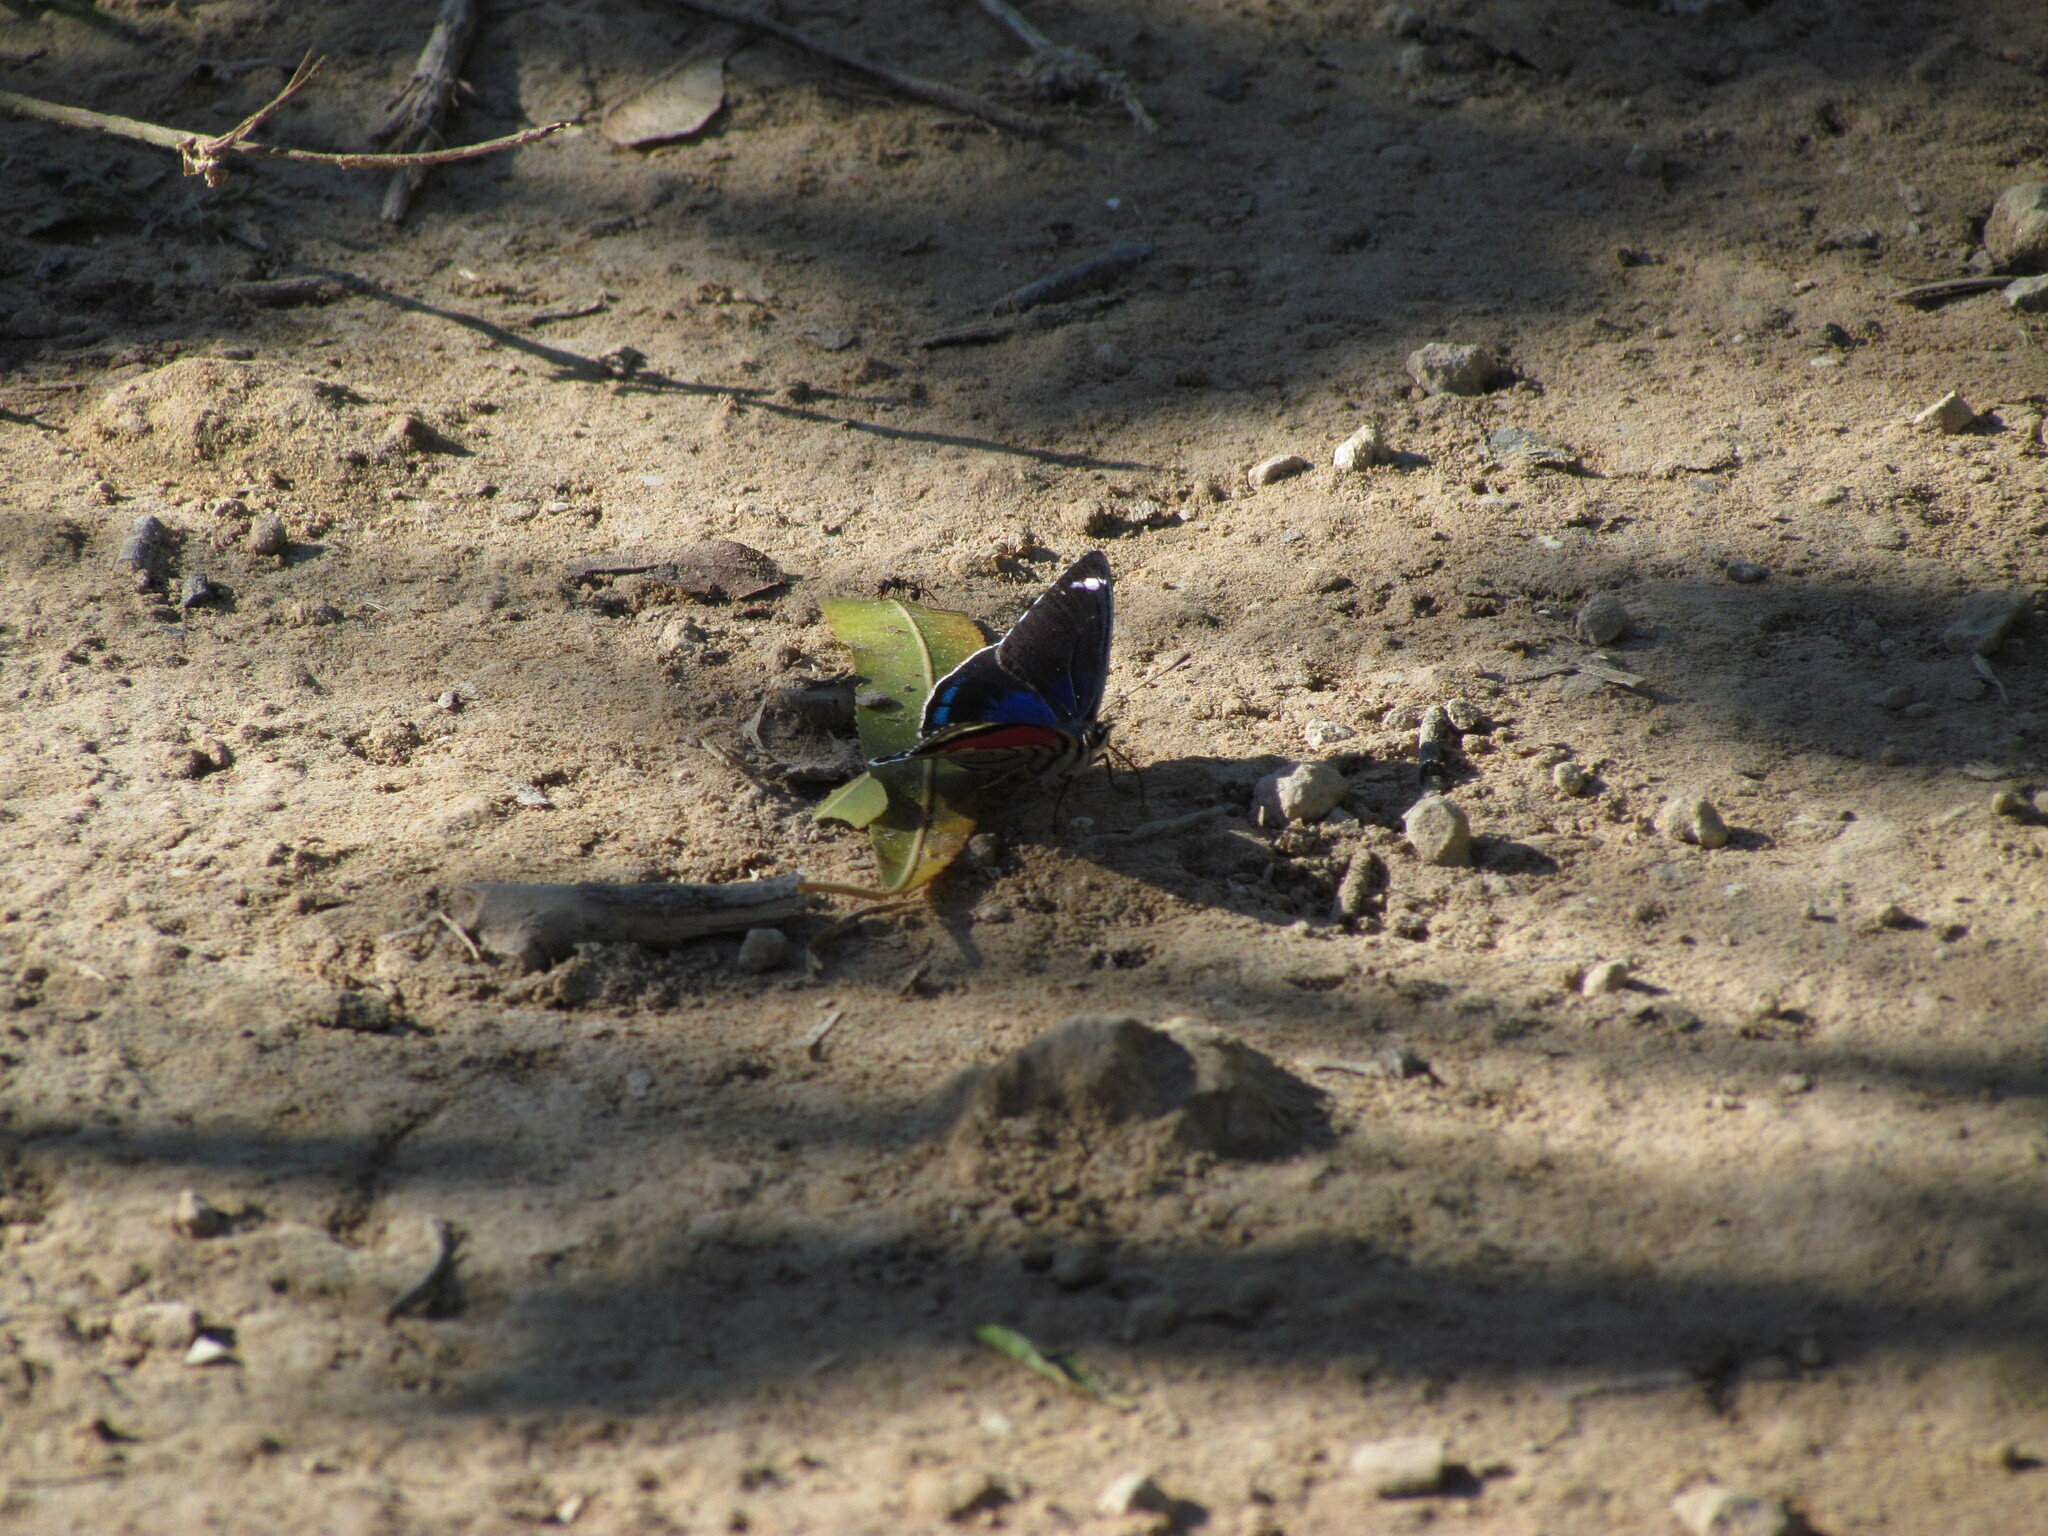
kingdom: Animalia
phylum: Arthropoda
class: Insecta
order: Lepidoptera
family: Nymphalidae
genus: Diaethria
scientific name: Diaethria candrena
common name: Number eighty
